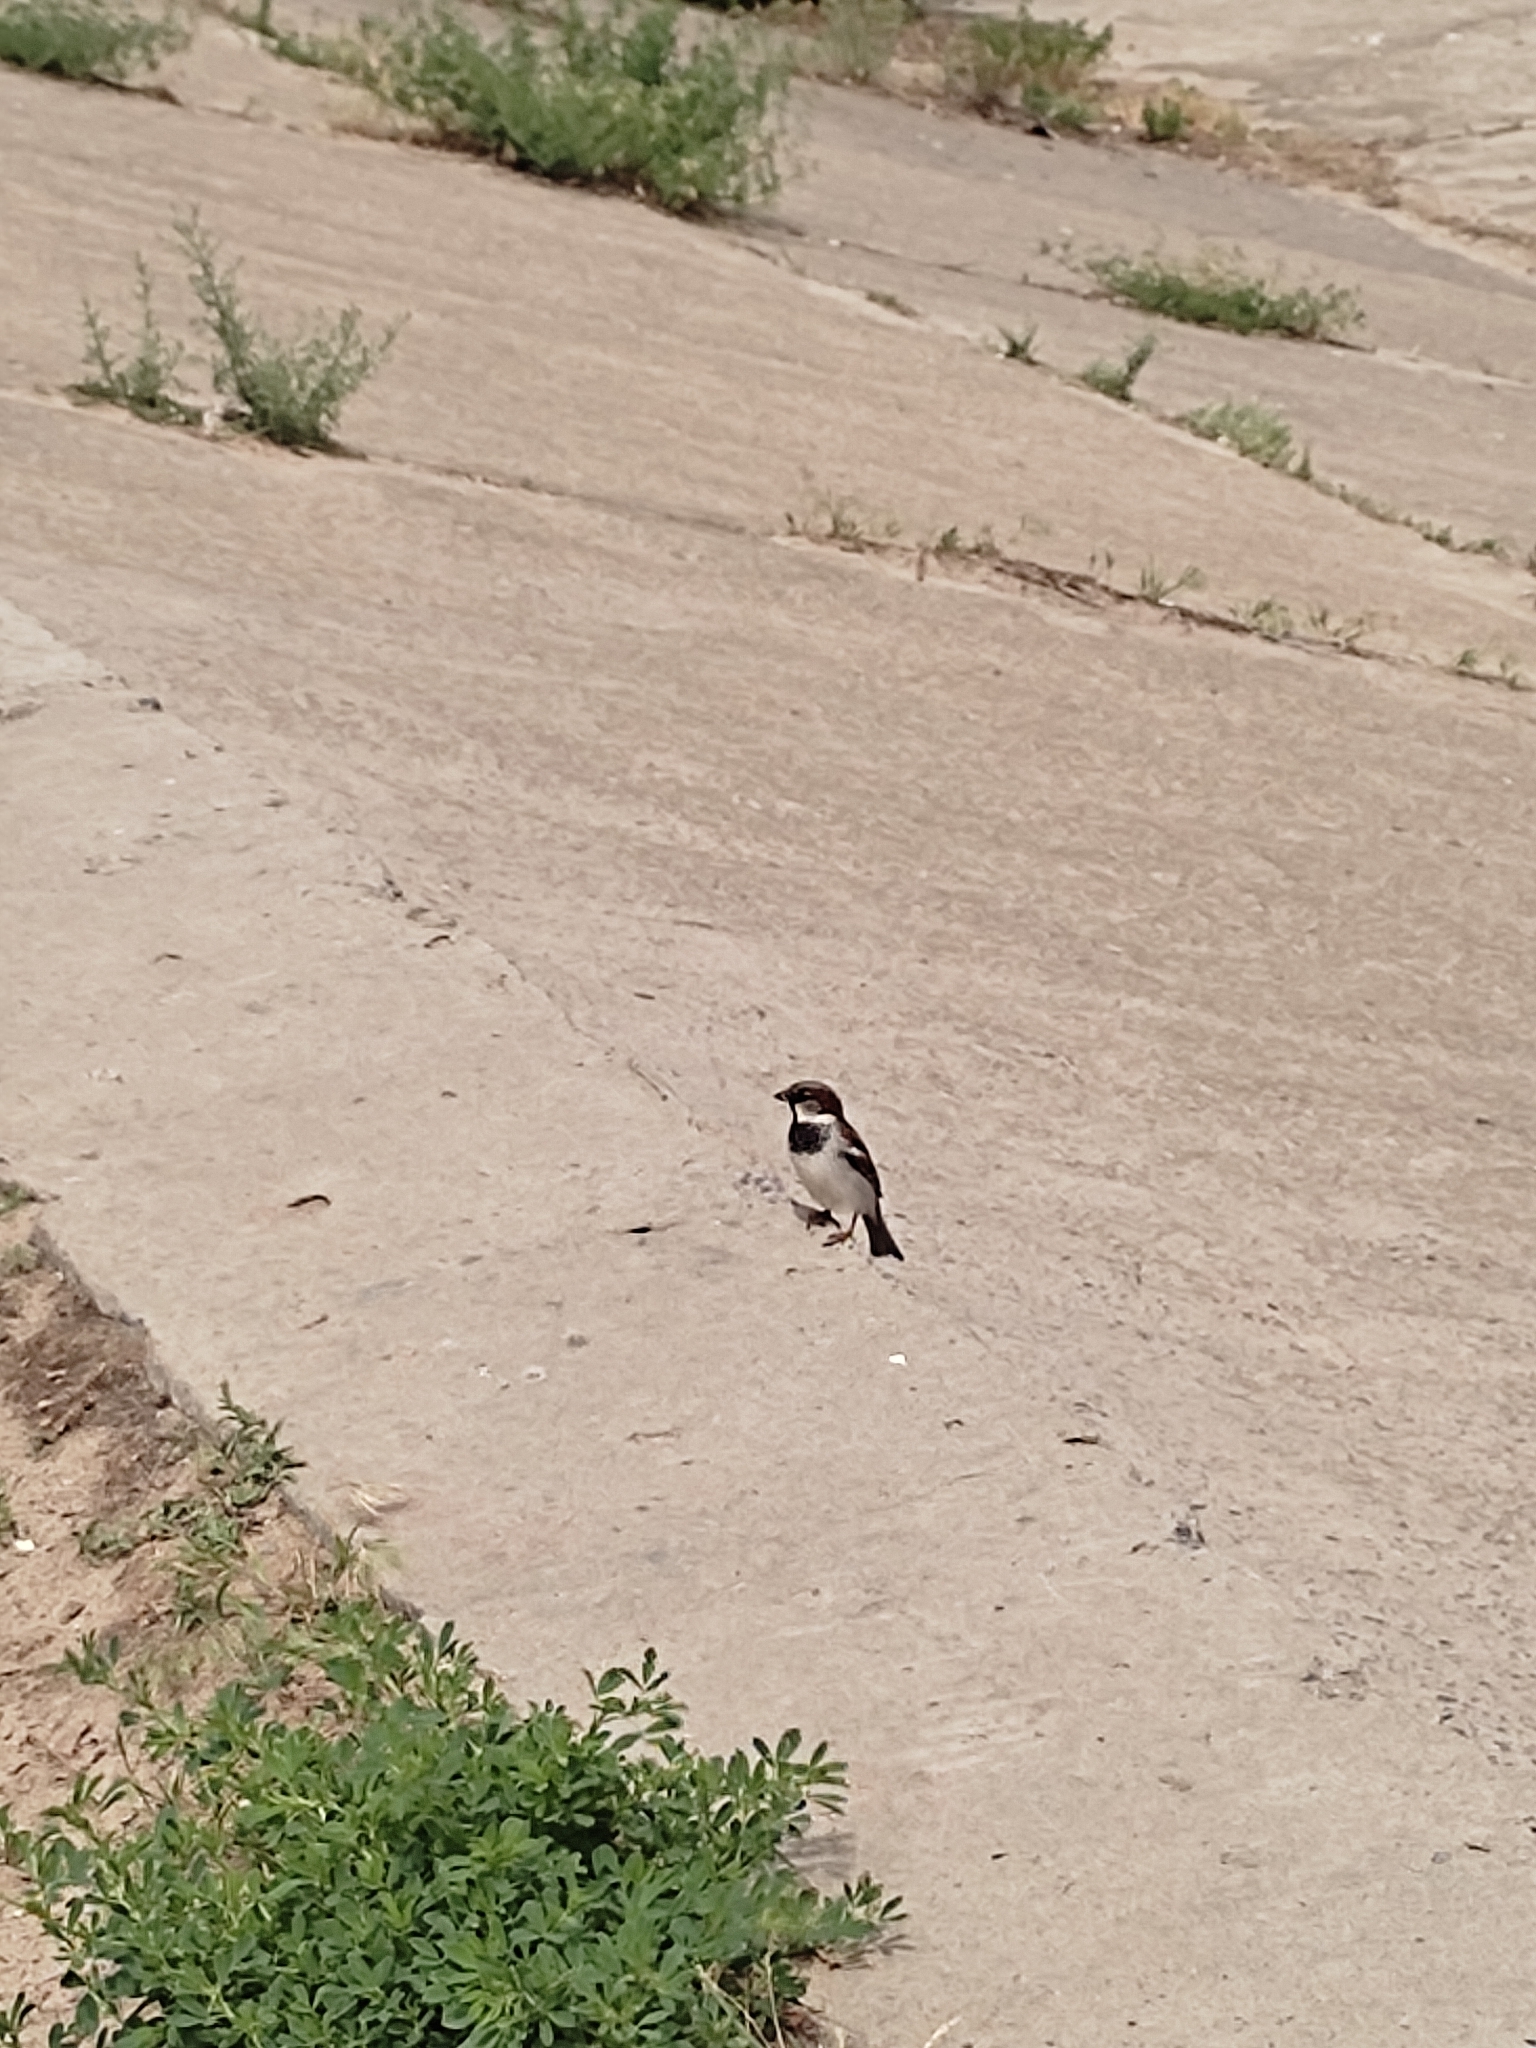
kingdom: Animalia
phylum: Chordata
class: Aves
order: Passeriformes
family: Passeridae
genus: Passer
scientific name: Passer domesticus
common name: House sparrow
